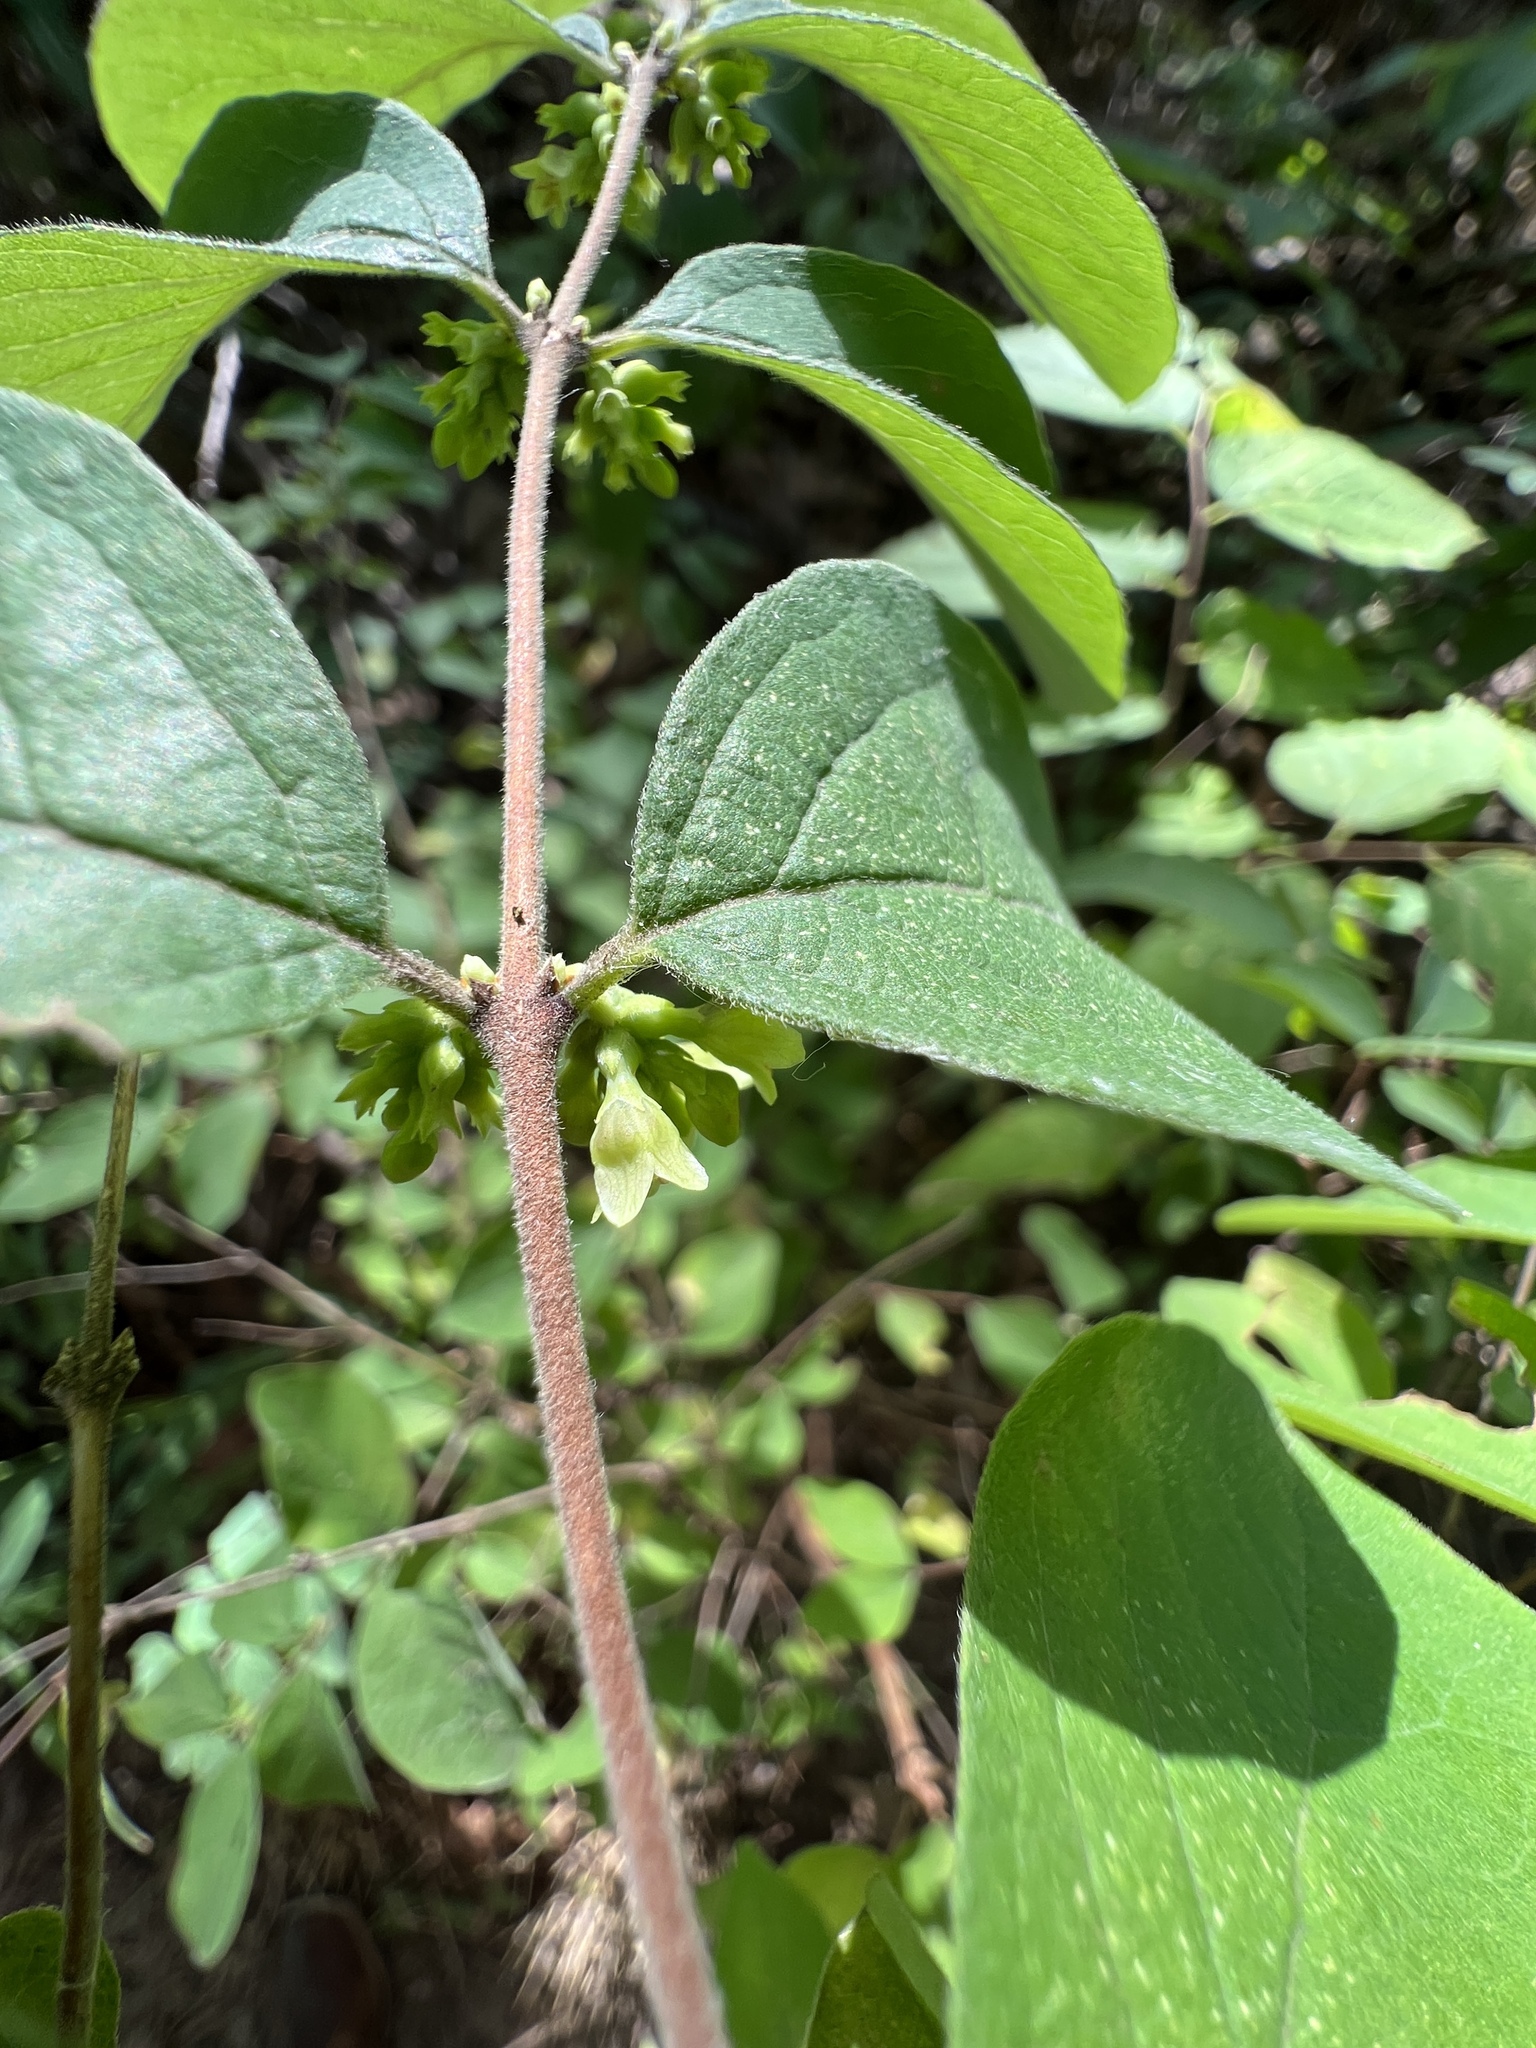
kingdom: Plantae
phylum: Tracheophyta
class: Magnoliopsida
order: Dipsacales
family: Caprifoliaceae
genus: Symphoricarpos
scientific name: Symphoricarpos orbiculatus
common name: Coralberry
